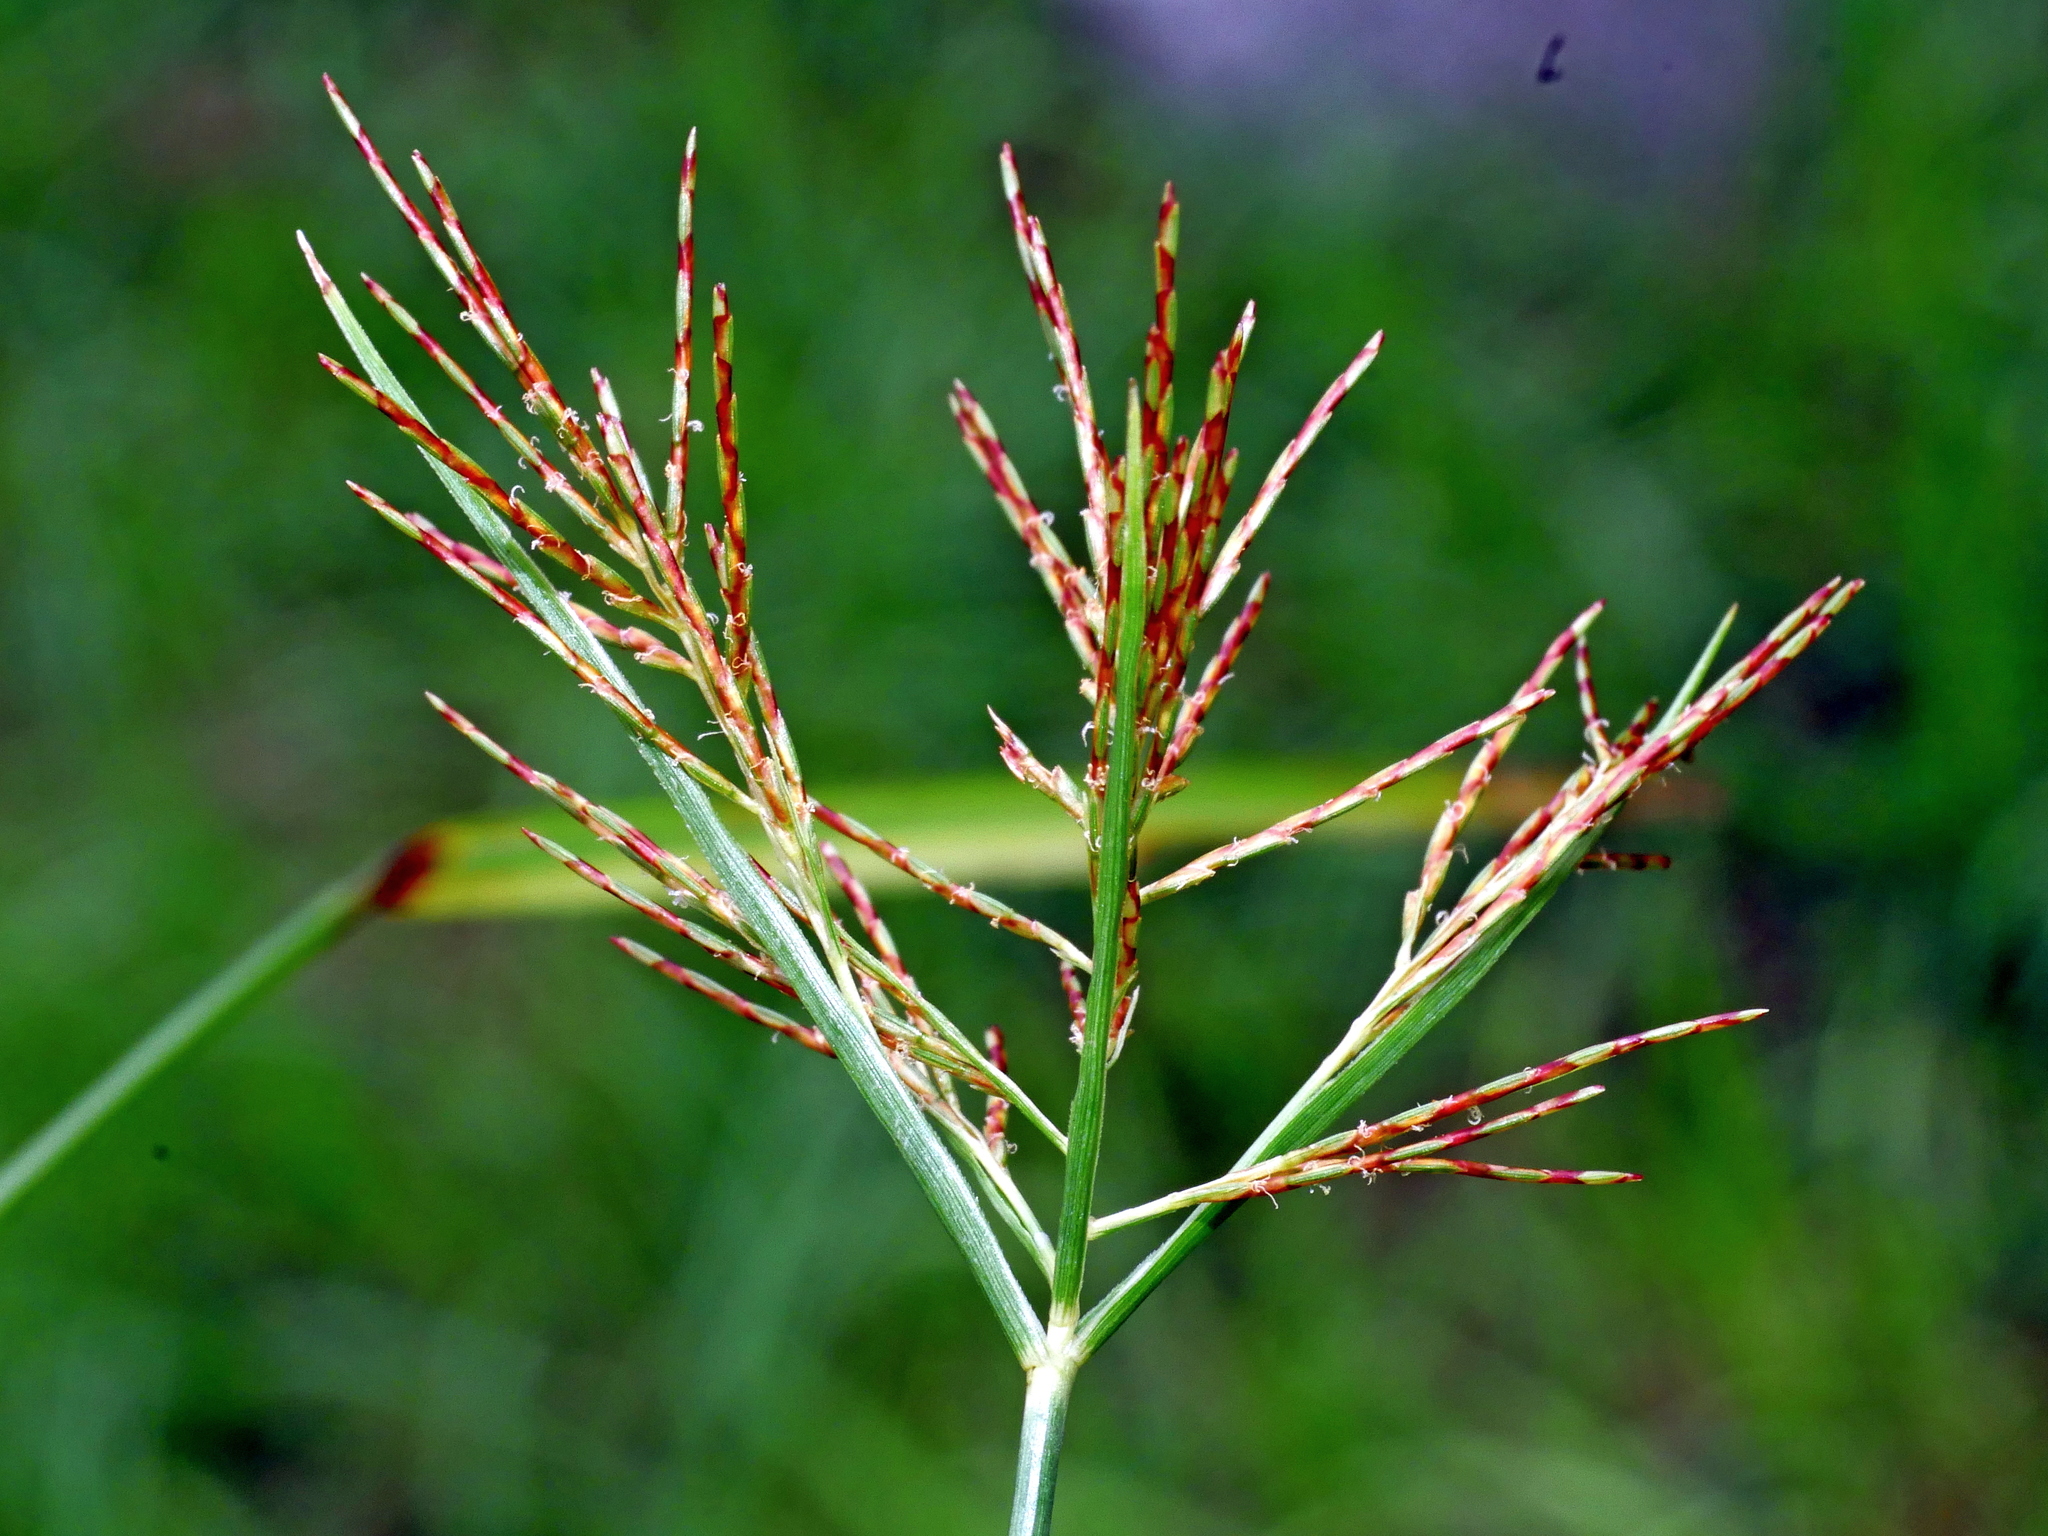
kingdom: Plantae
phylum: Tracheophyta
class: Liliopsida
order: Poales
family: Cyperaceae
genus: Cyperus
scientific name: Cyperus distans
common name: Slender cyperus
